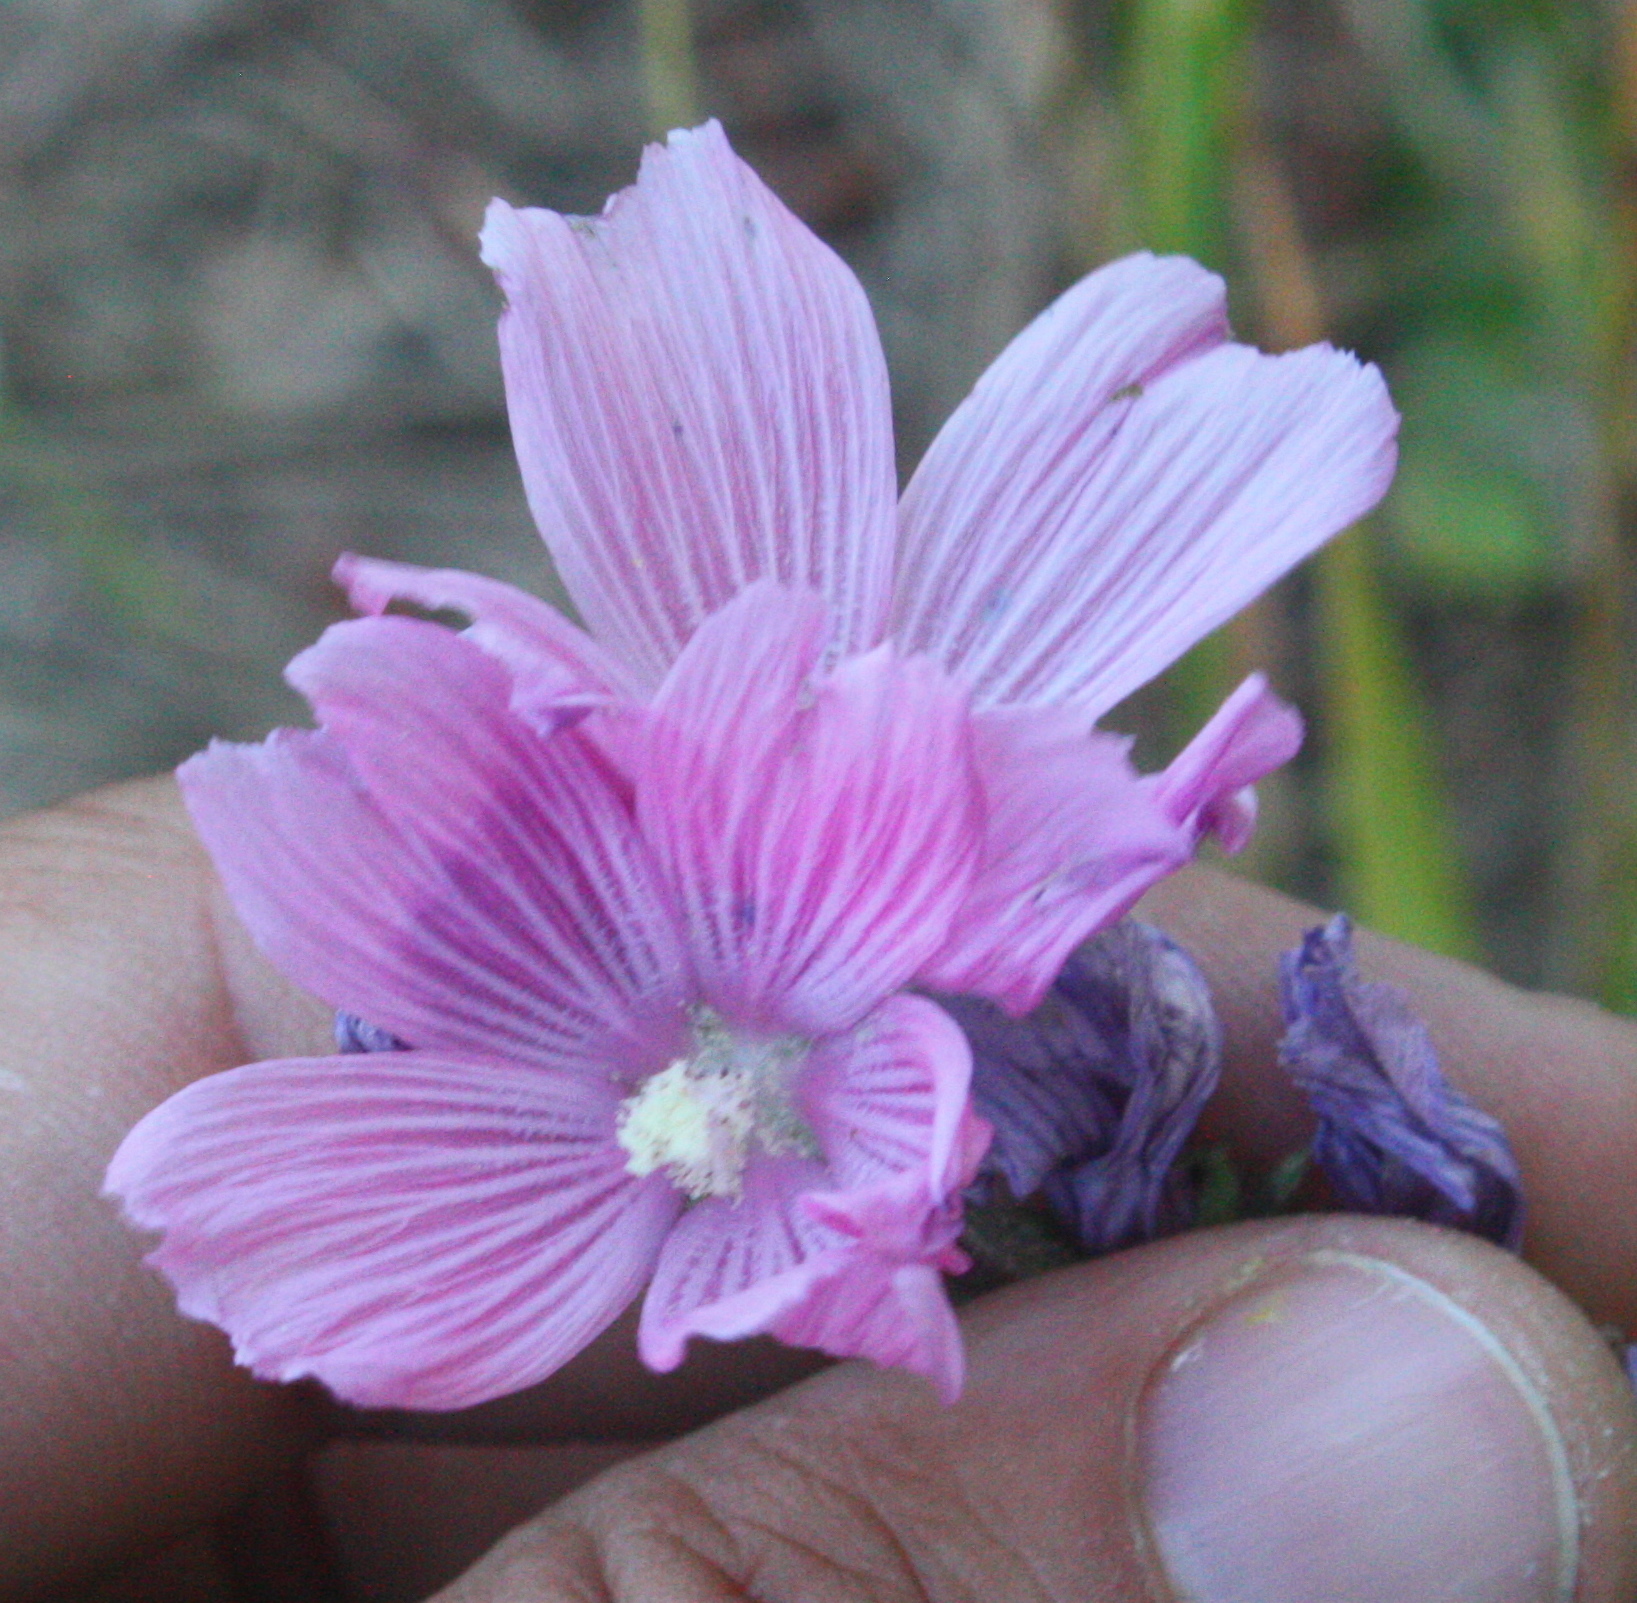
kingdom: Plantae
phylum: Tracheophyta
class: Magnoliopsida
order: Malvales
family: Malvaceae
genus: Sidalcea
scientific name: Sidalcea malviflora
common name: Greek mallow
